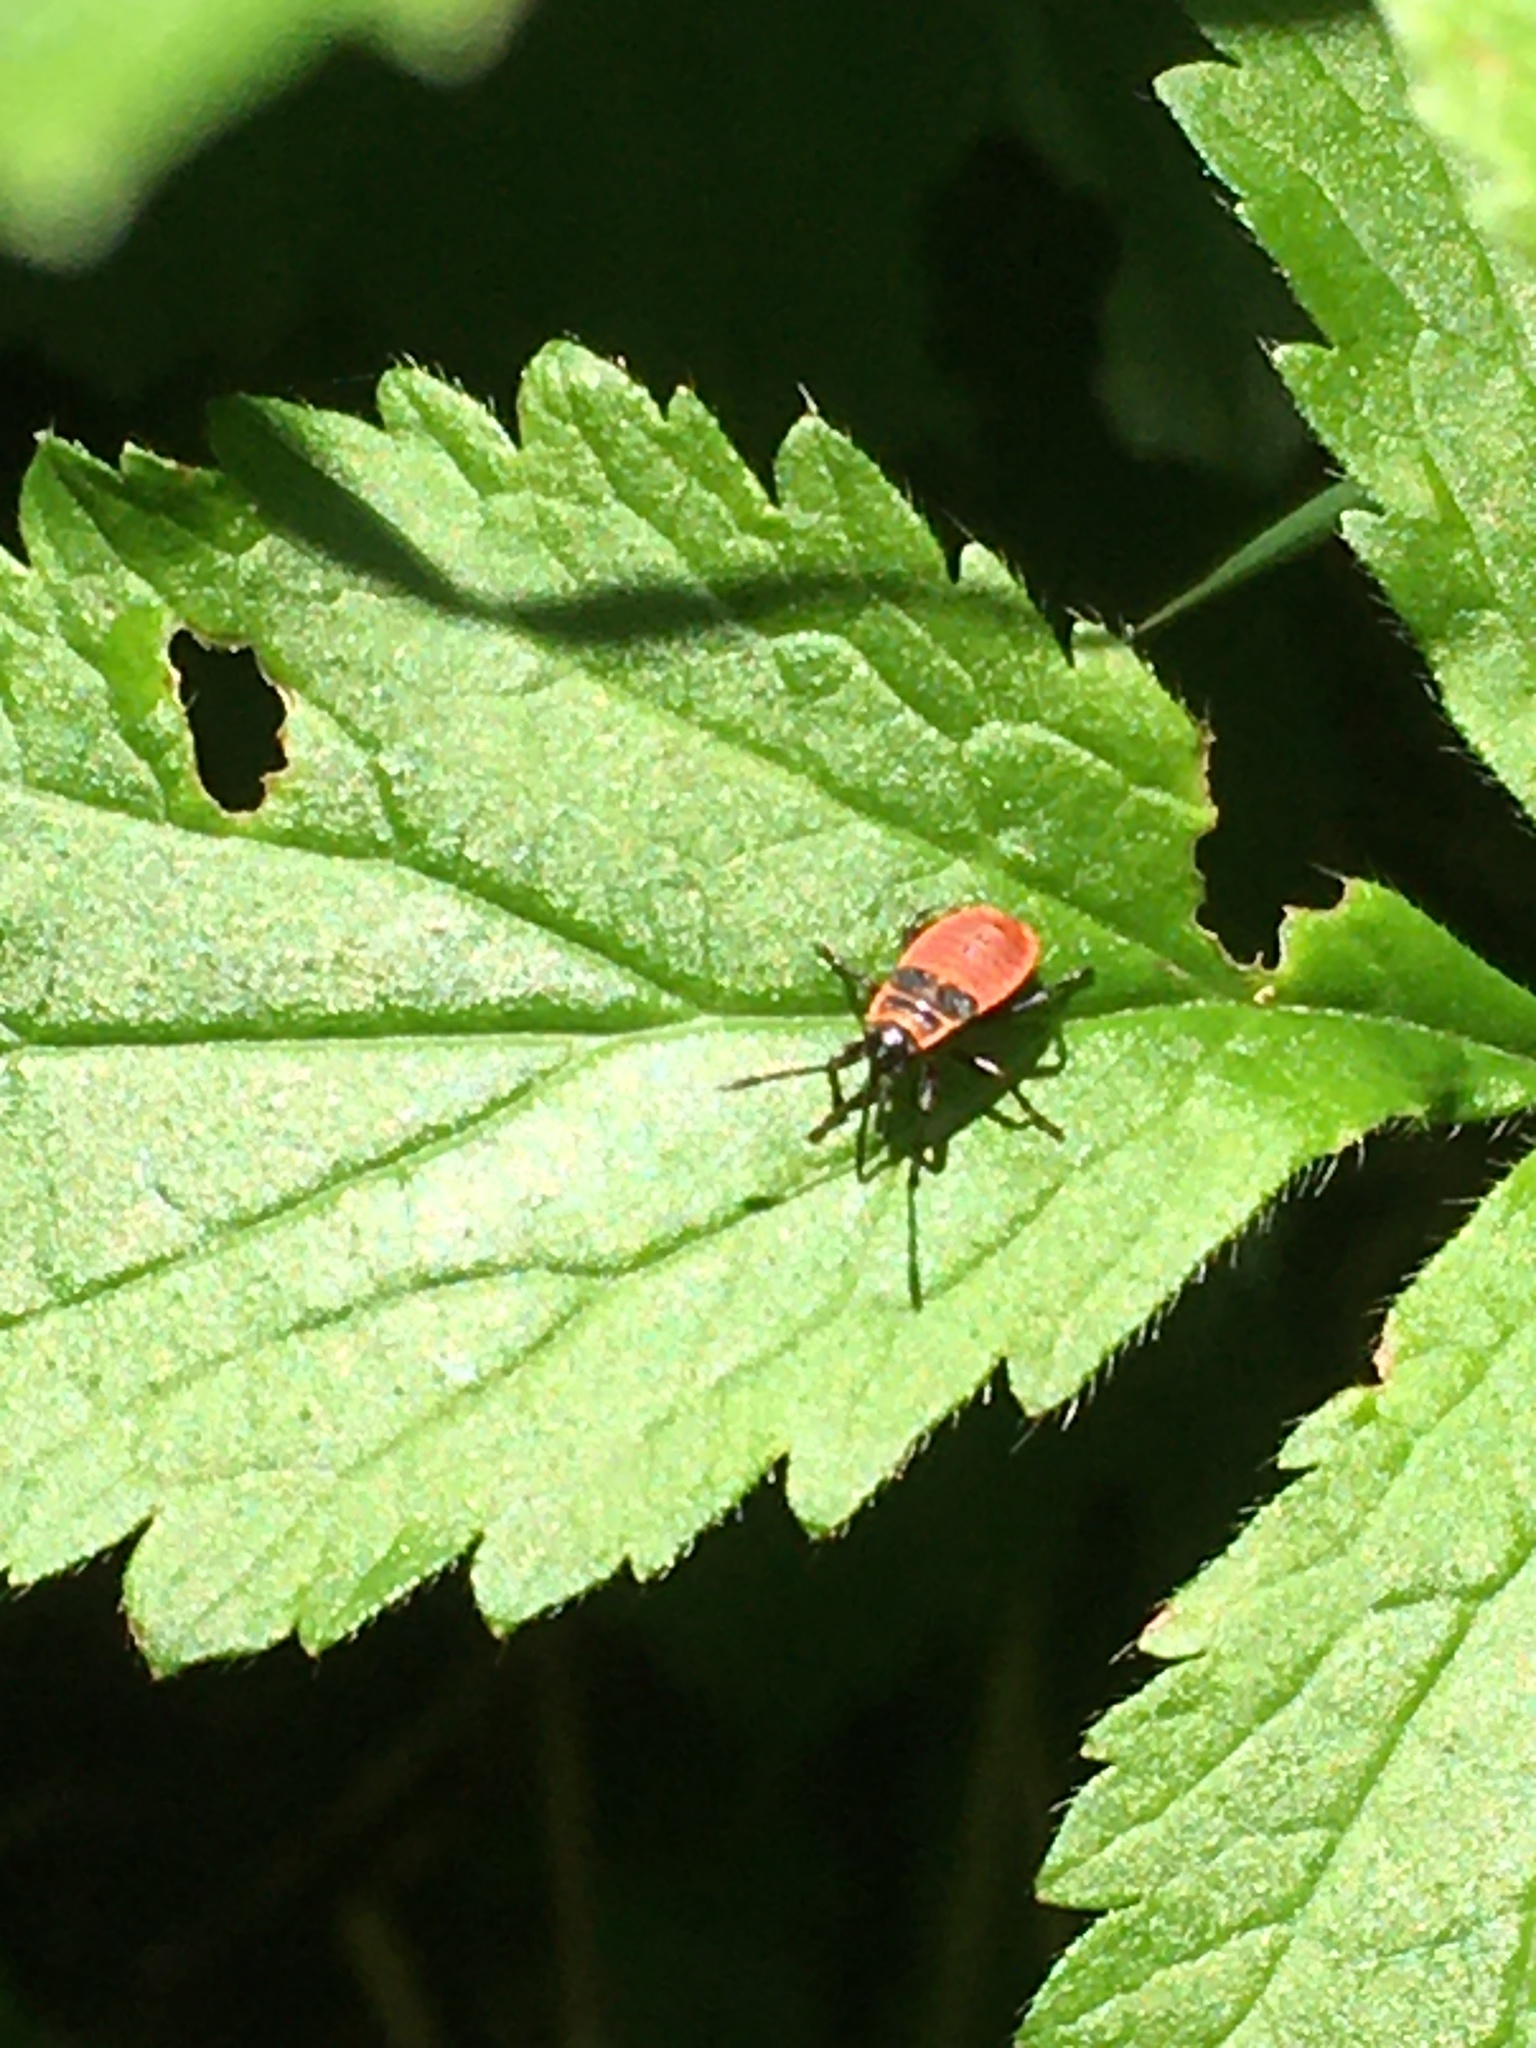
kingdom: Animalia
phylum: Arthropoda
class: Insecta
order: Hemiptera
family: Pyrrhocoridae
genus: Pyrrhocoris
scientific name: Pyrrhocoris apterus
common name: Firebug
